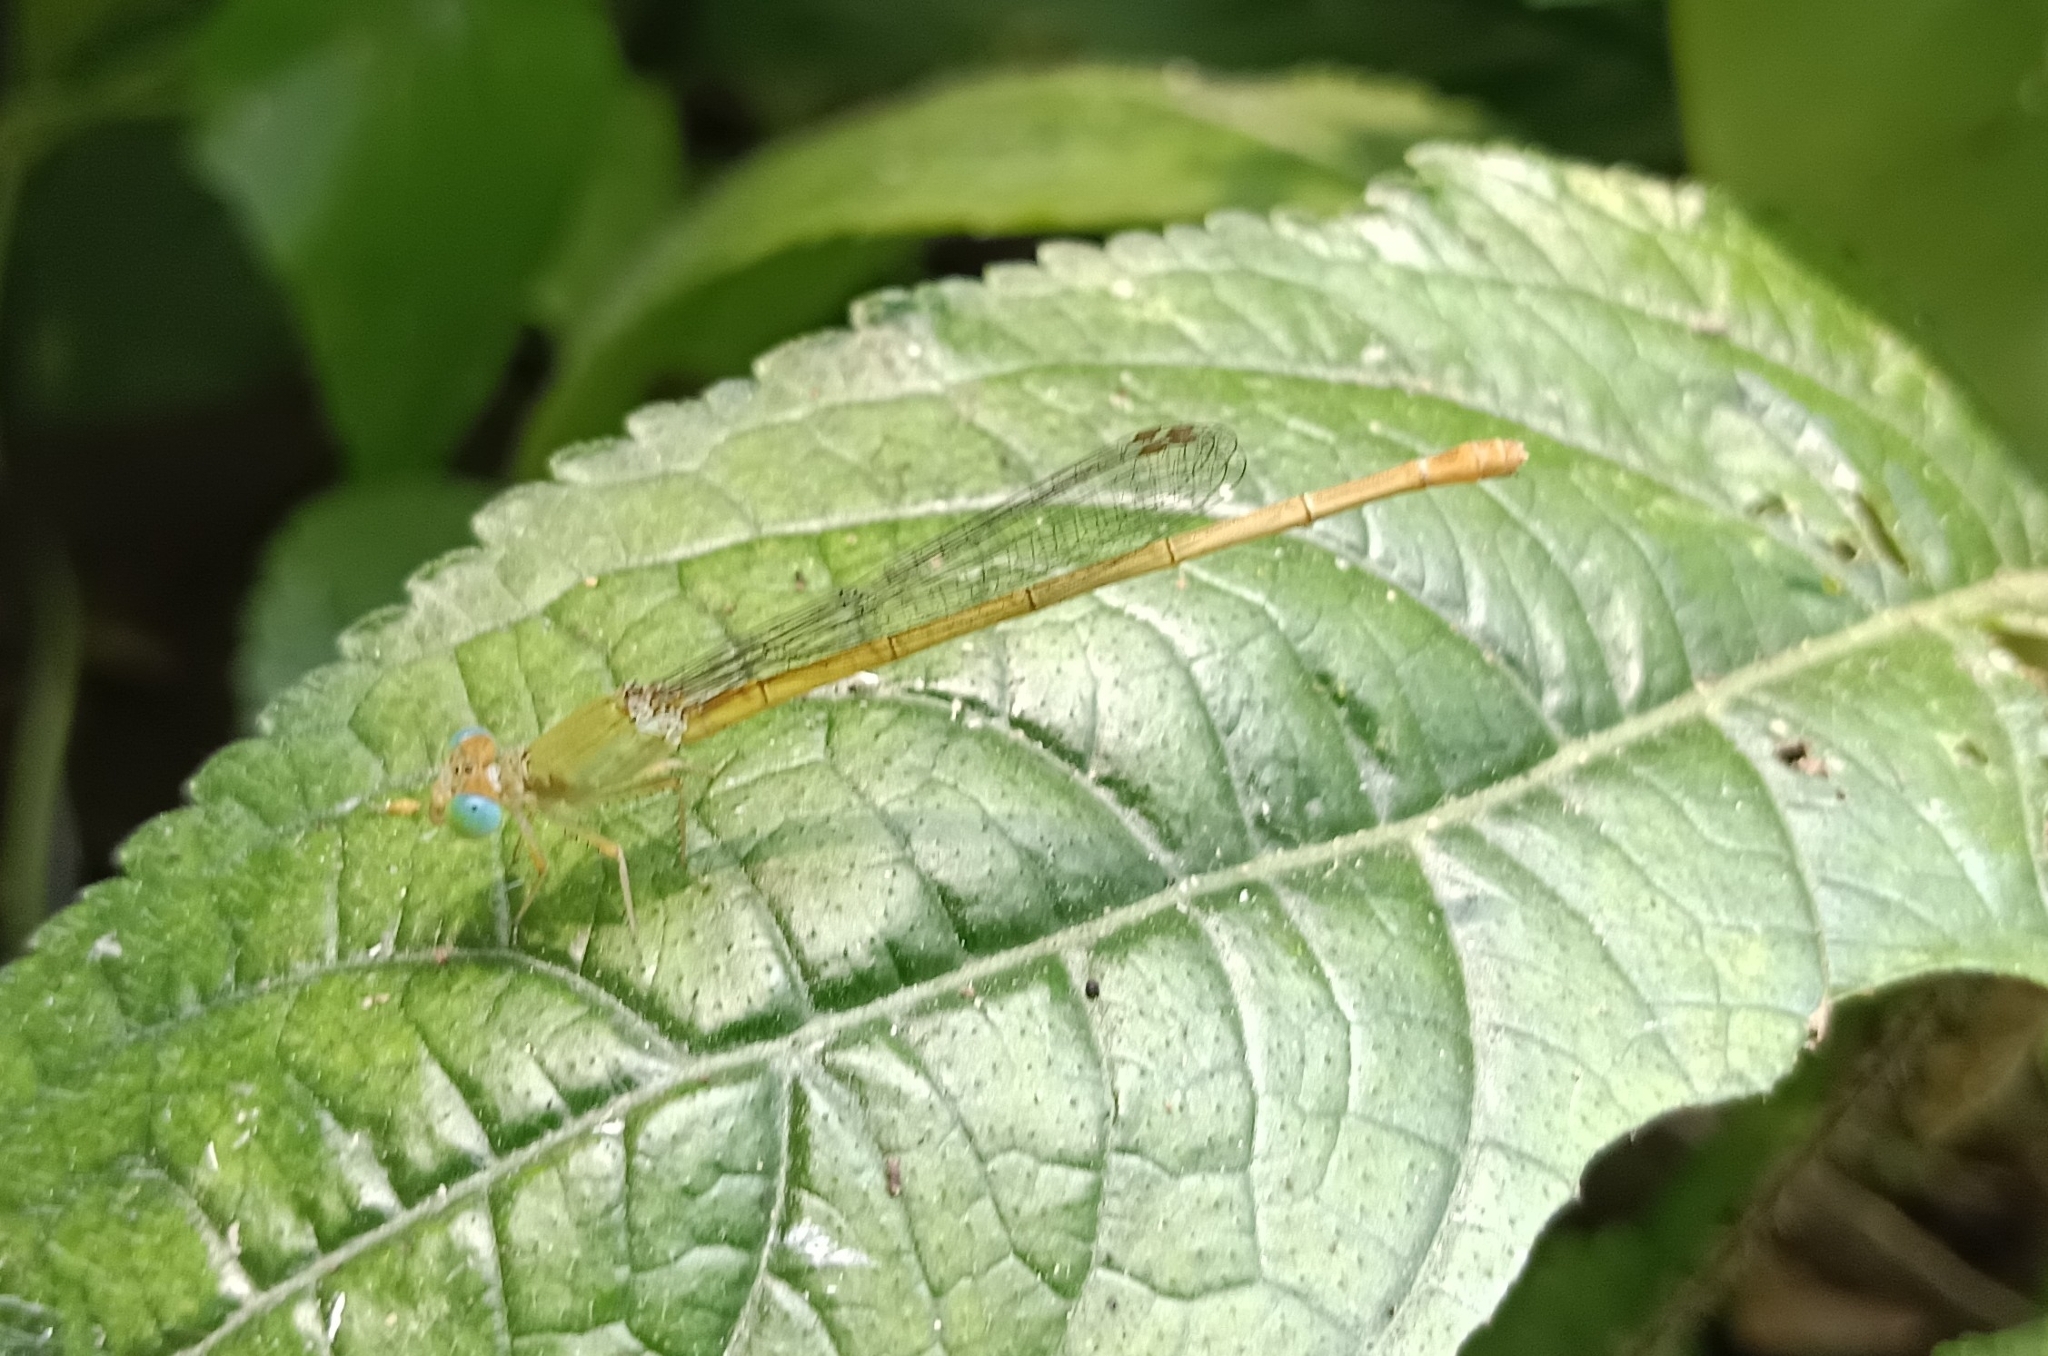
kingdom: Animalia
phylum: Arthropoda
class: Insecta
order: Odonata
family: Coenagrionidae
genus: Ceriagrion
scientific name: Ceriagrion coromandelianum
